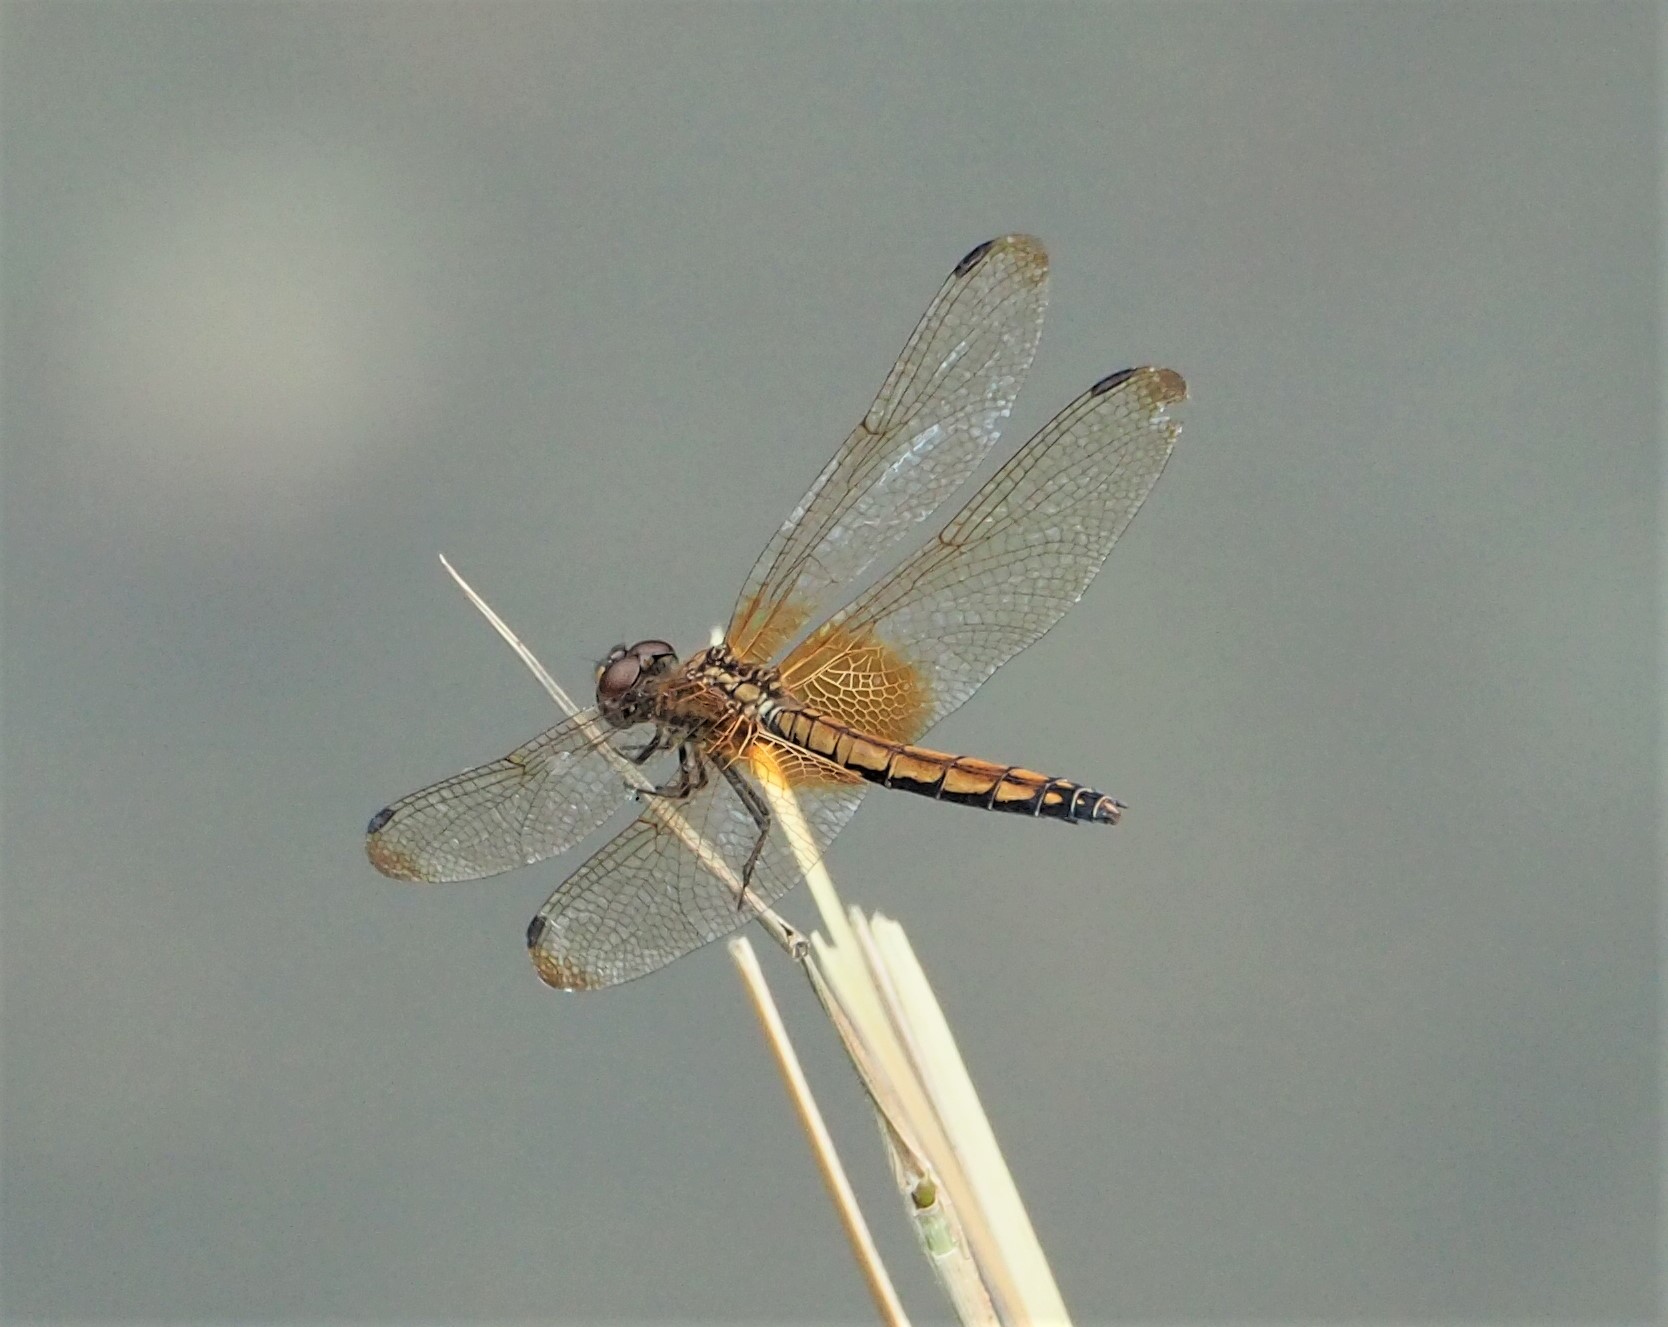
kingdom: Animalia
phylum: Arthropoda
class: Insecta
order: Odonata
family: Libellulidae
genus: Trithemis
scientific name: Trithemis aurora
